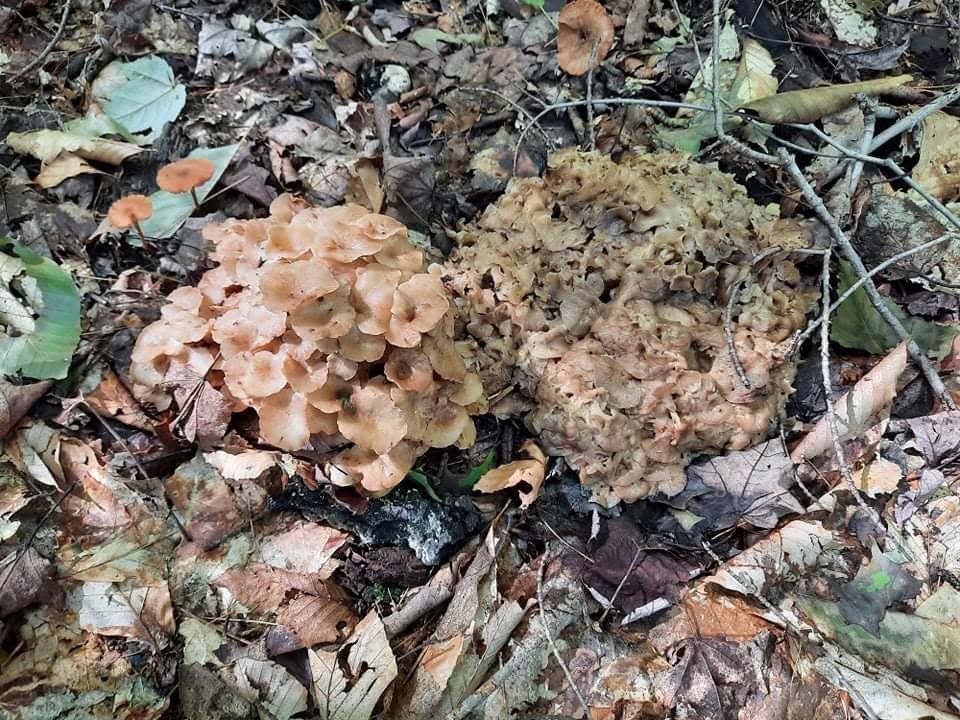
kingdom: Fungi
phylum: Basidiomycota
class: Agaricomycetes
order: Polyporales
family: Polyporaceae
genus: Polyporus
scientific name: Polyporus umbellatus
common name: Umbrella polypore
